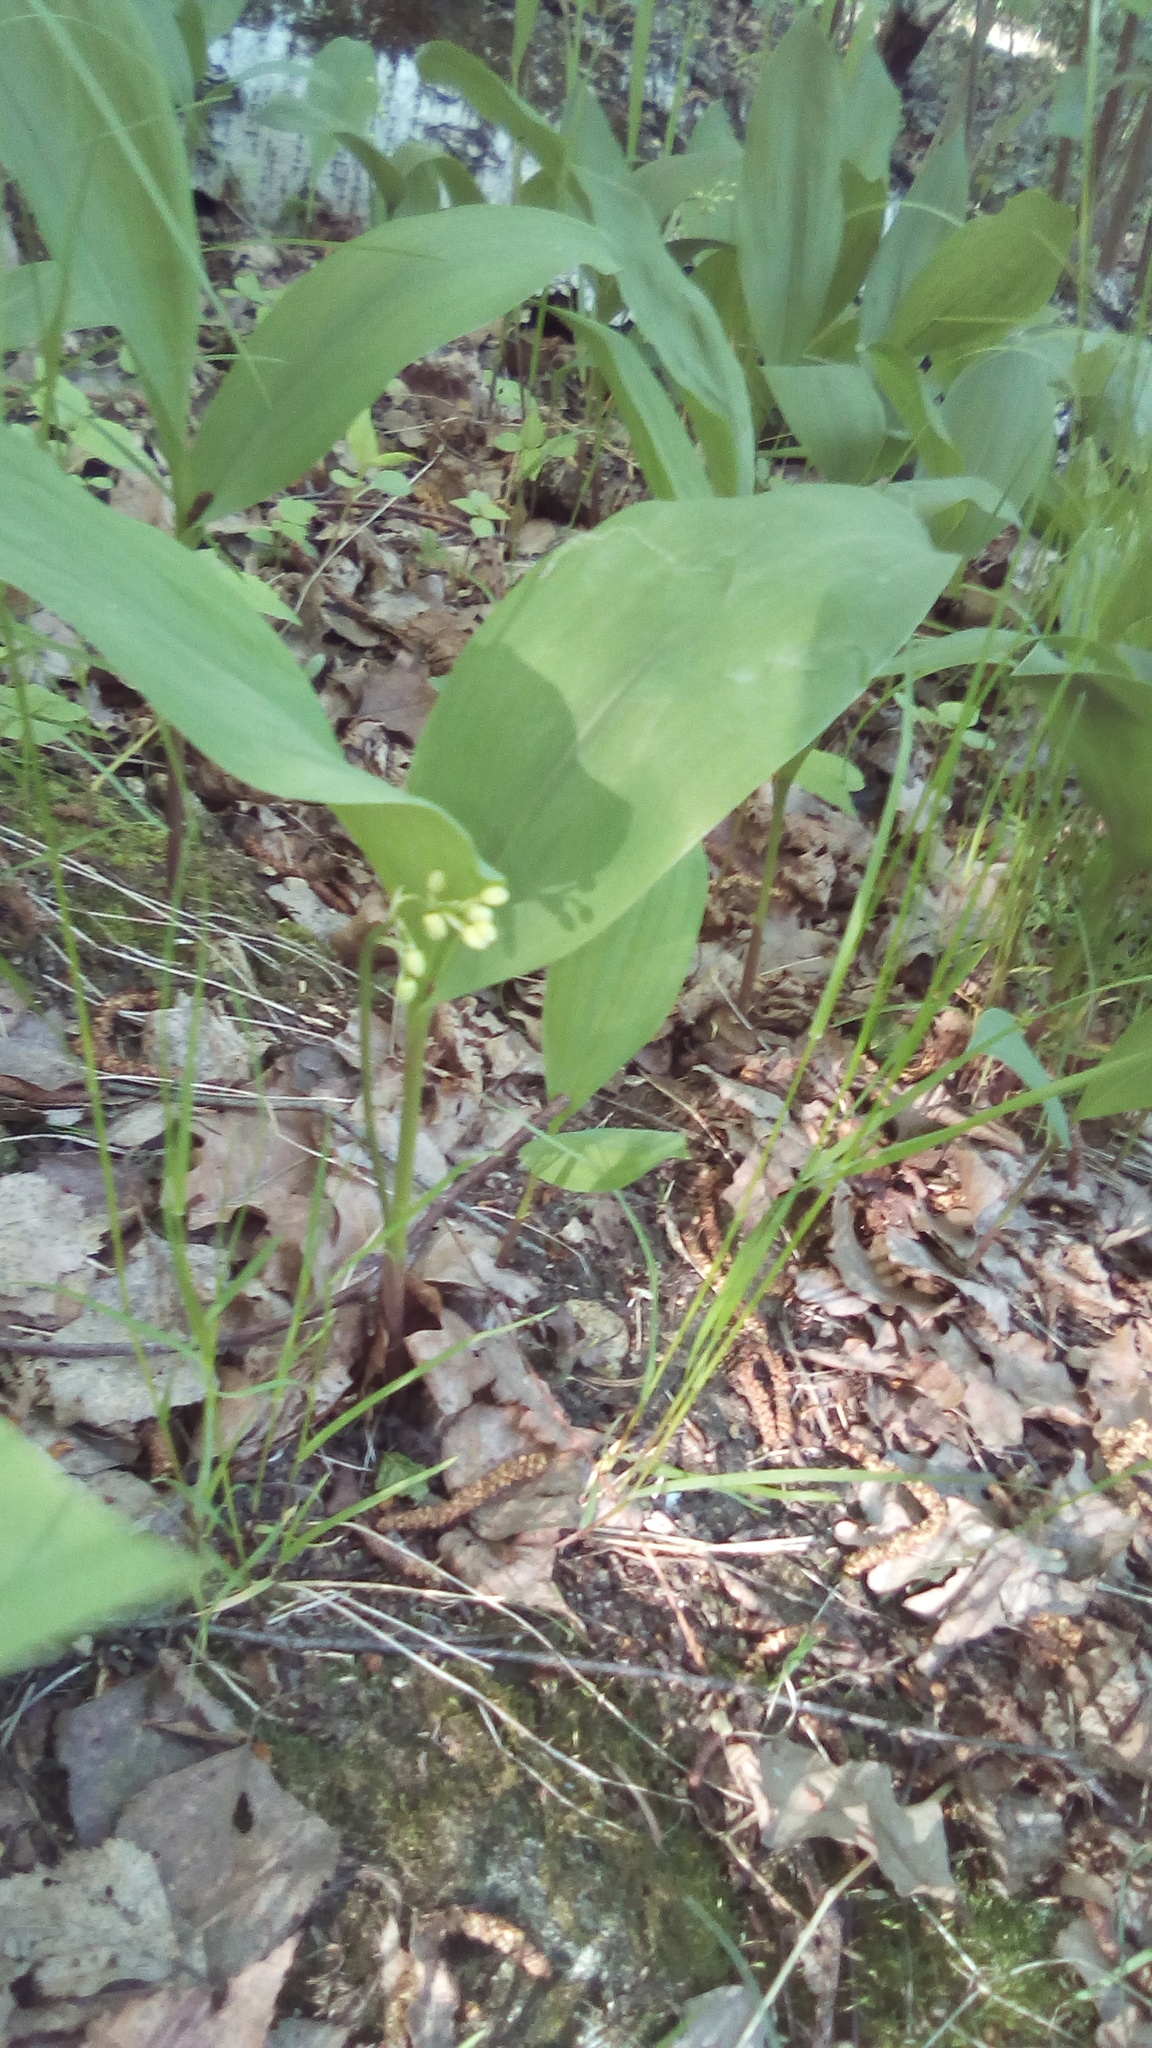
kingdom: Plantae
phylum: Tracheophyta
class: Liliopsida
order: Asparagales
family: Asparagaceae
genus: Convallaria
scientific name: Convallaria majalis
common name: Lily-of-the-valley
